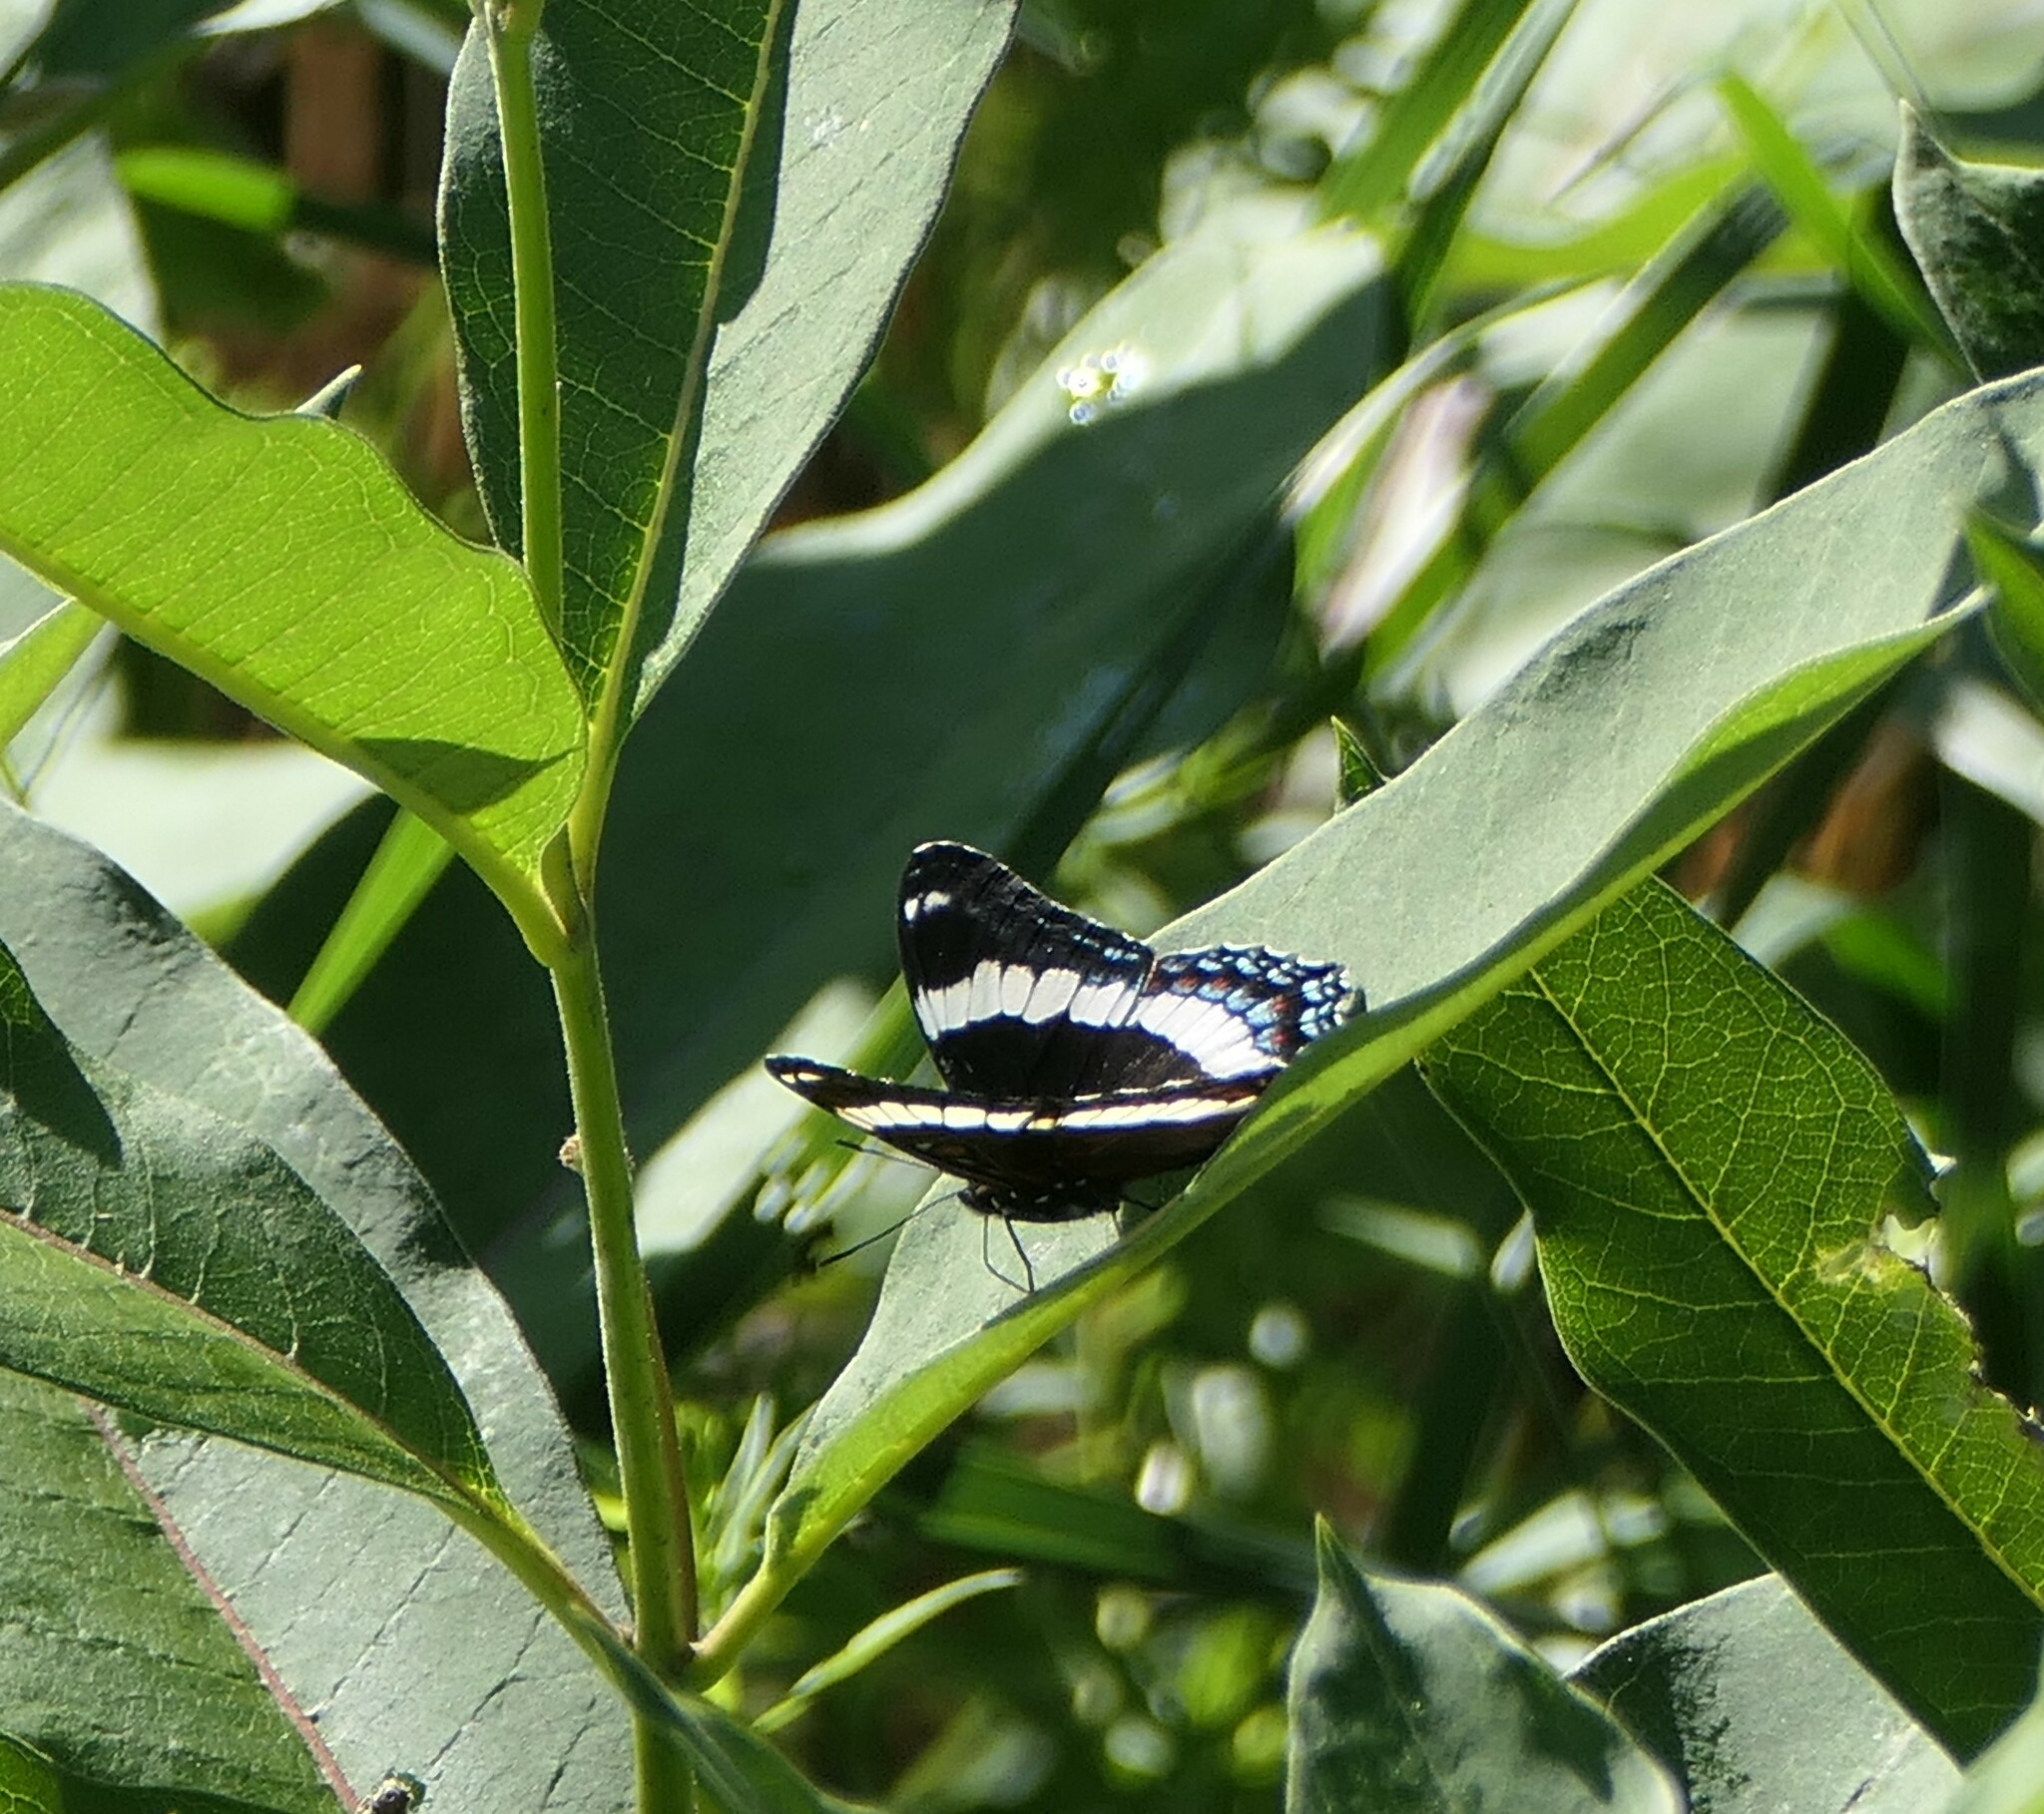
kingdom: Animalia
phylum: Arthropoda
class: Insecta
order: Lepidoptera
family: Nymphalidae
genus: Limenitis
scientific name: Limenitis arthemis
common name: Red-spotted admiral
